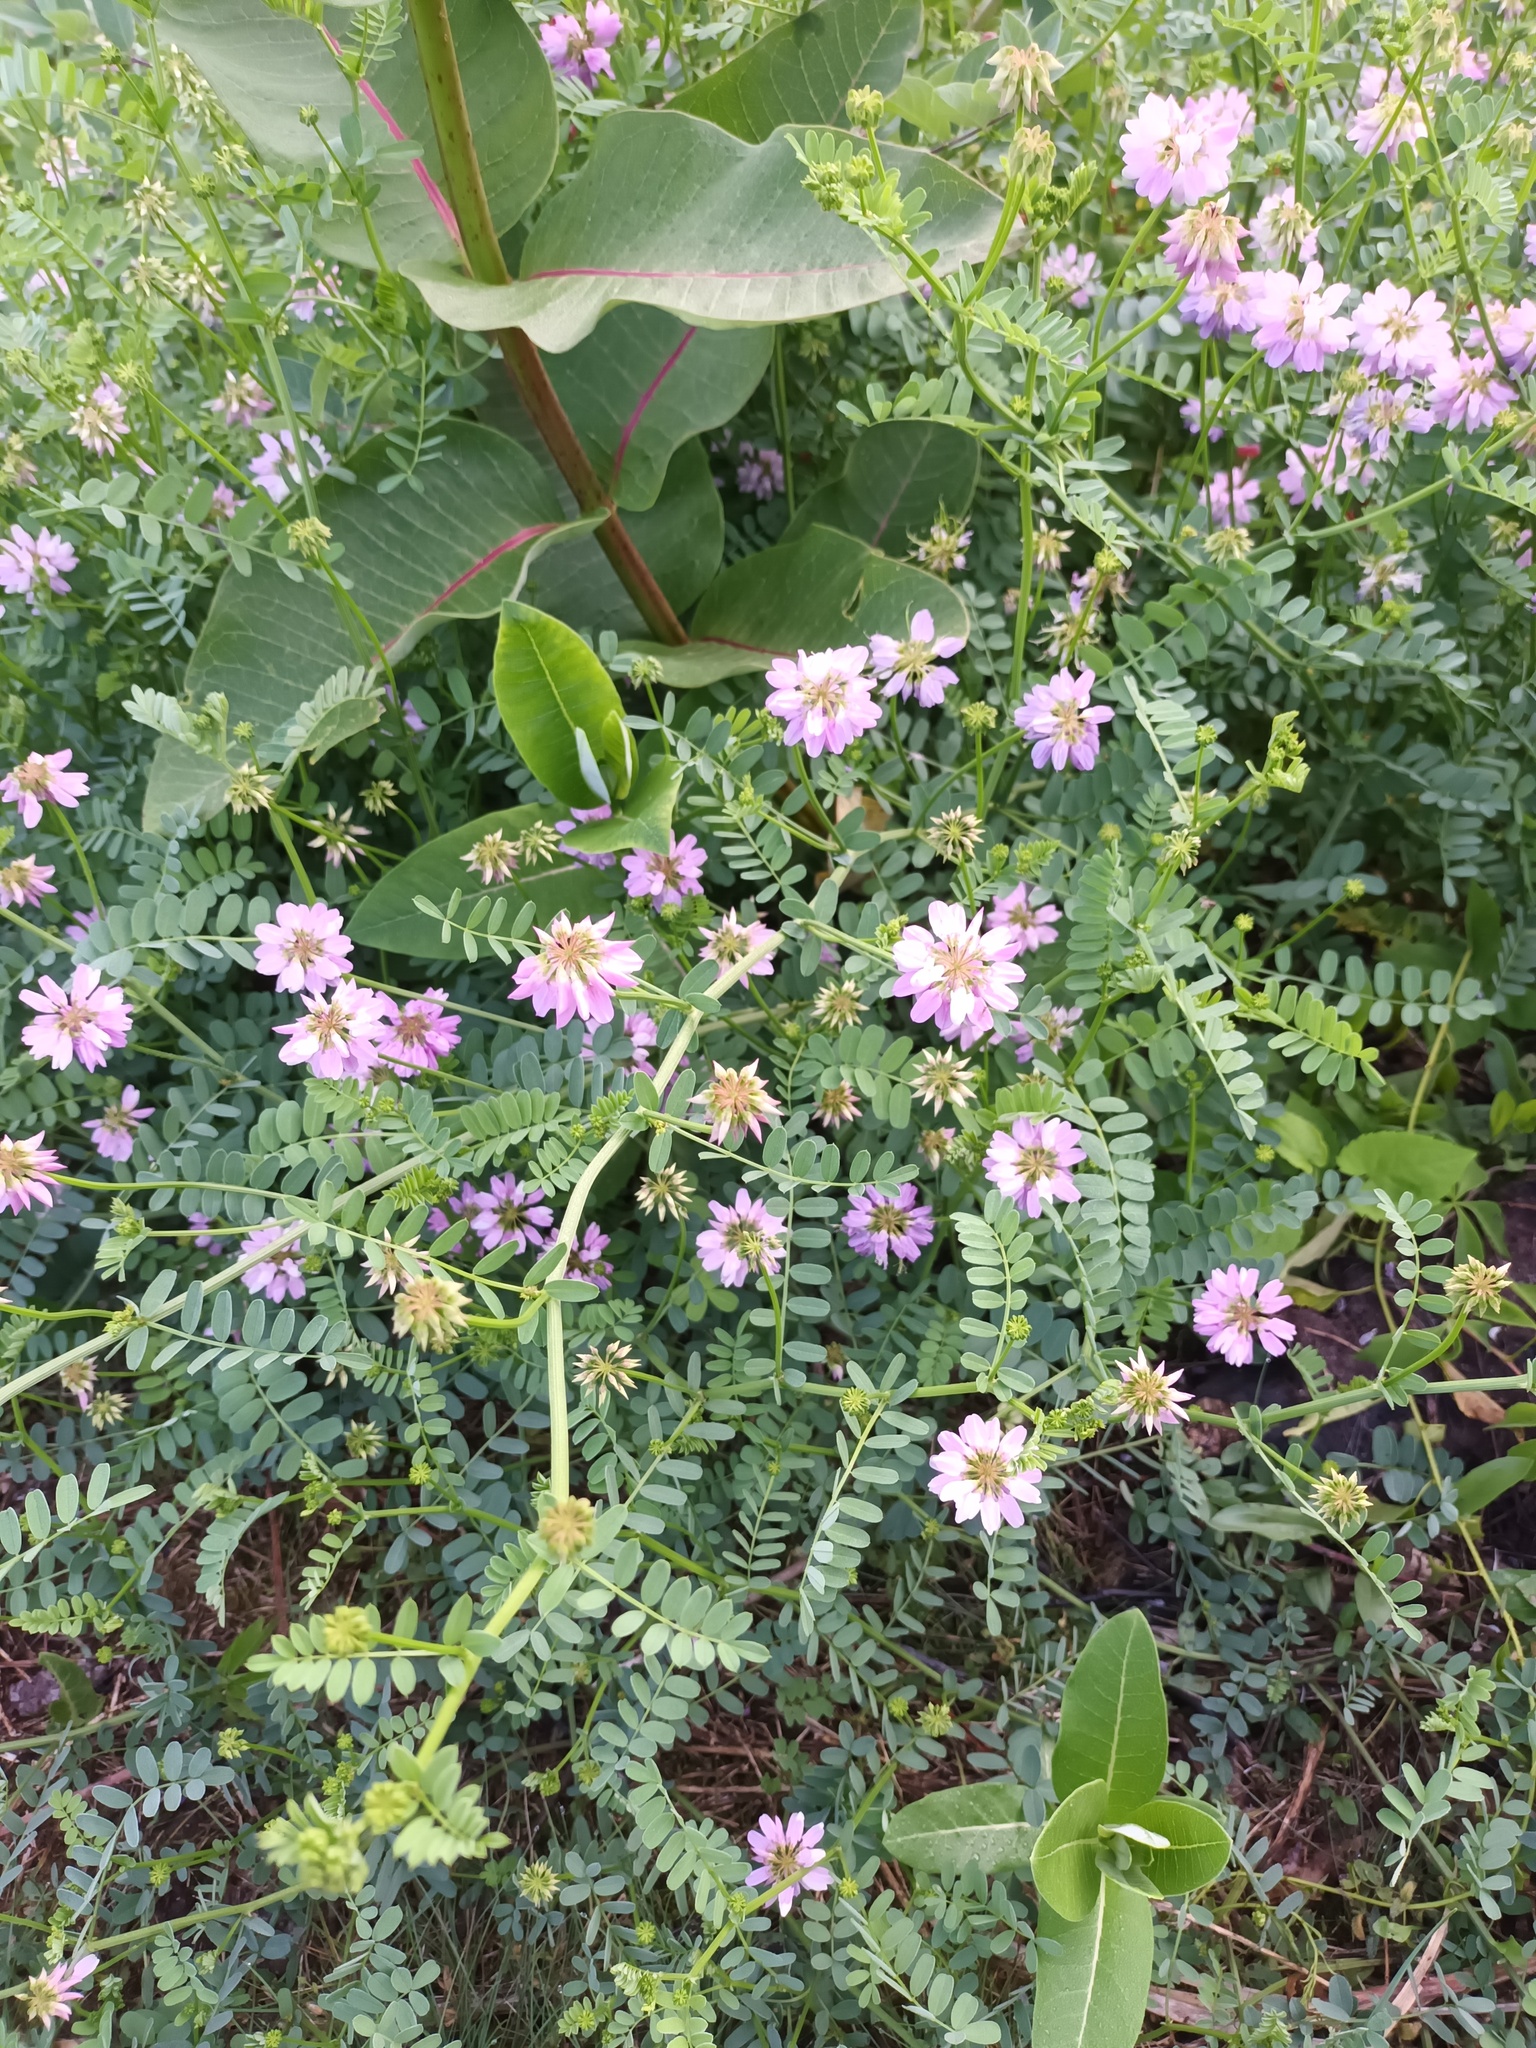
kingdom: Plantae
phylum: Tracheophyta
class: Magnoliopsida
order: Fabales
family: Fabaceae
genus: Coronilla
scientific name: Coronilla varia
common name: Crownvetch
